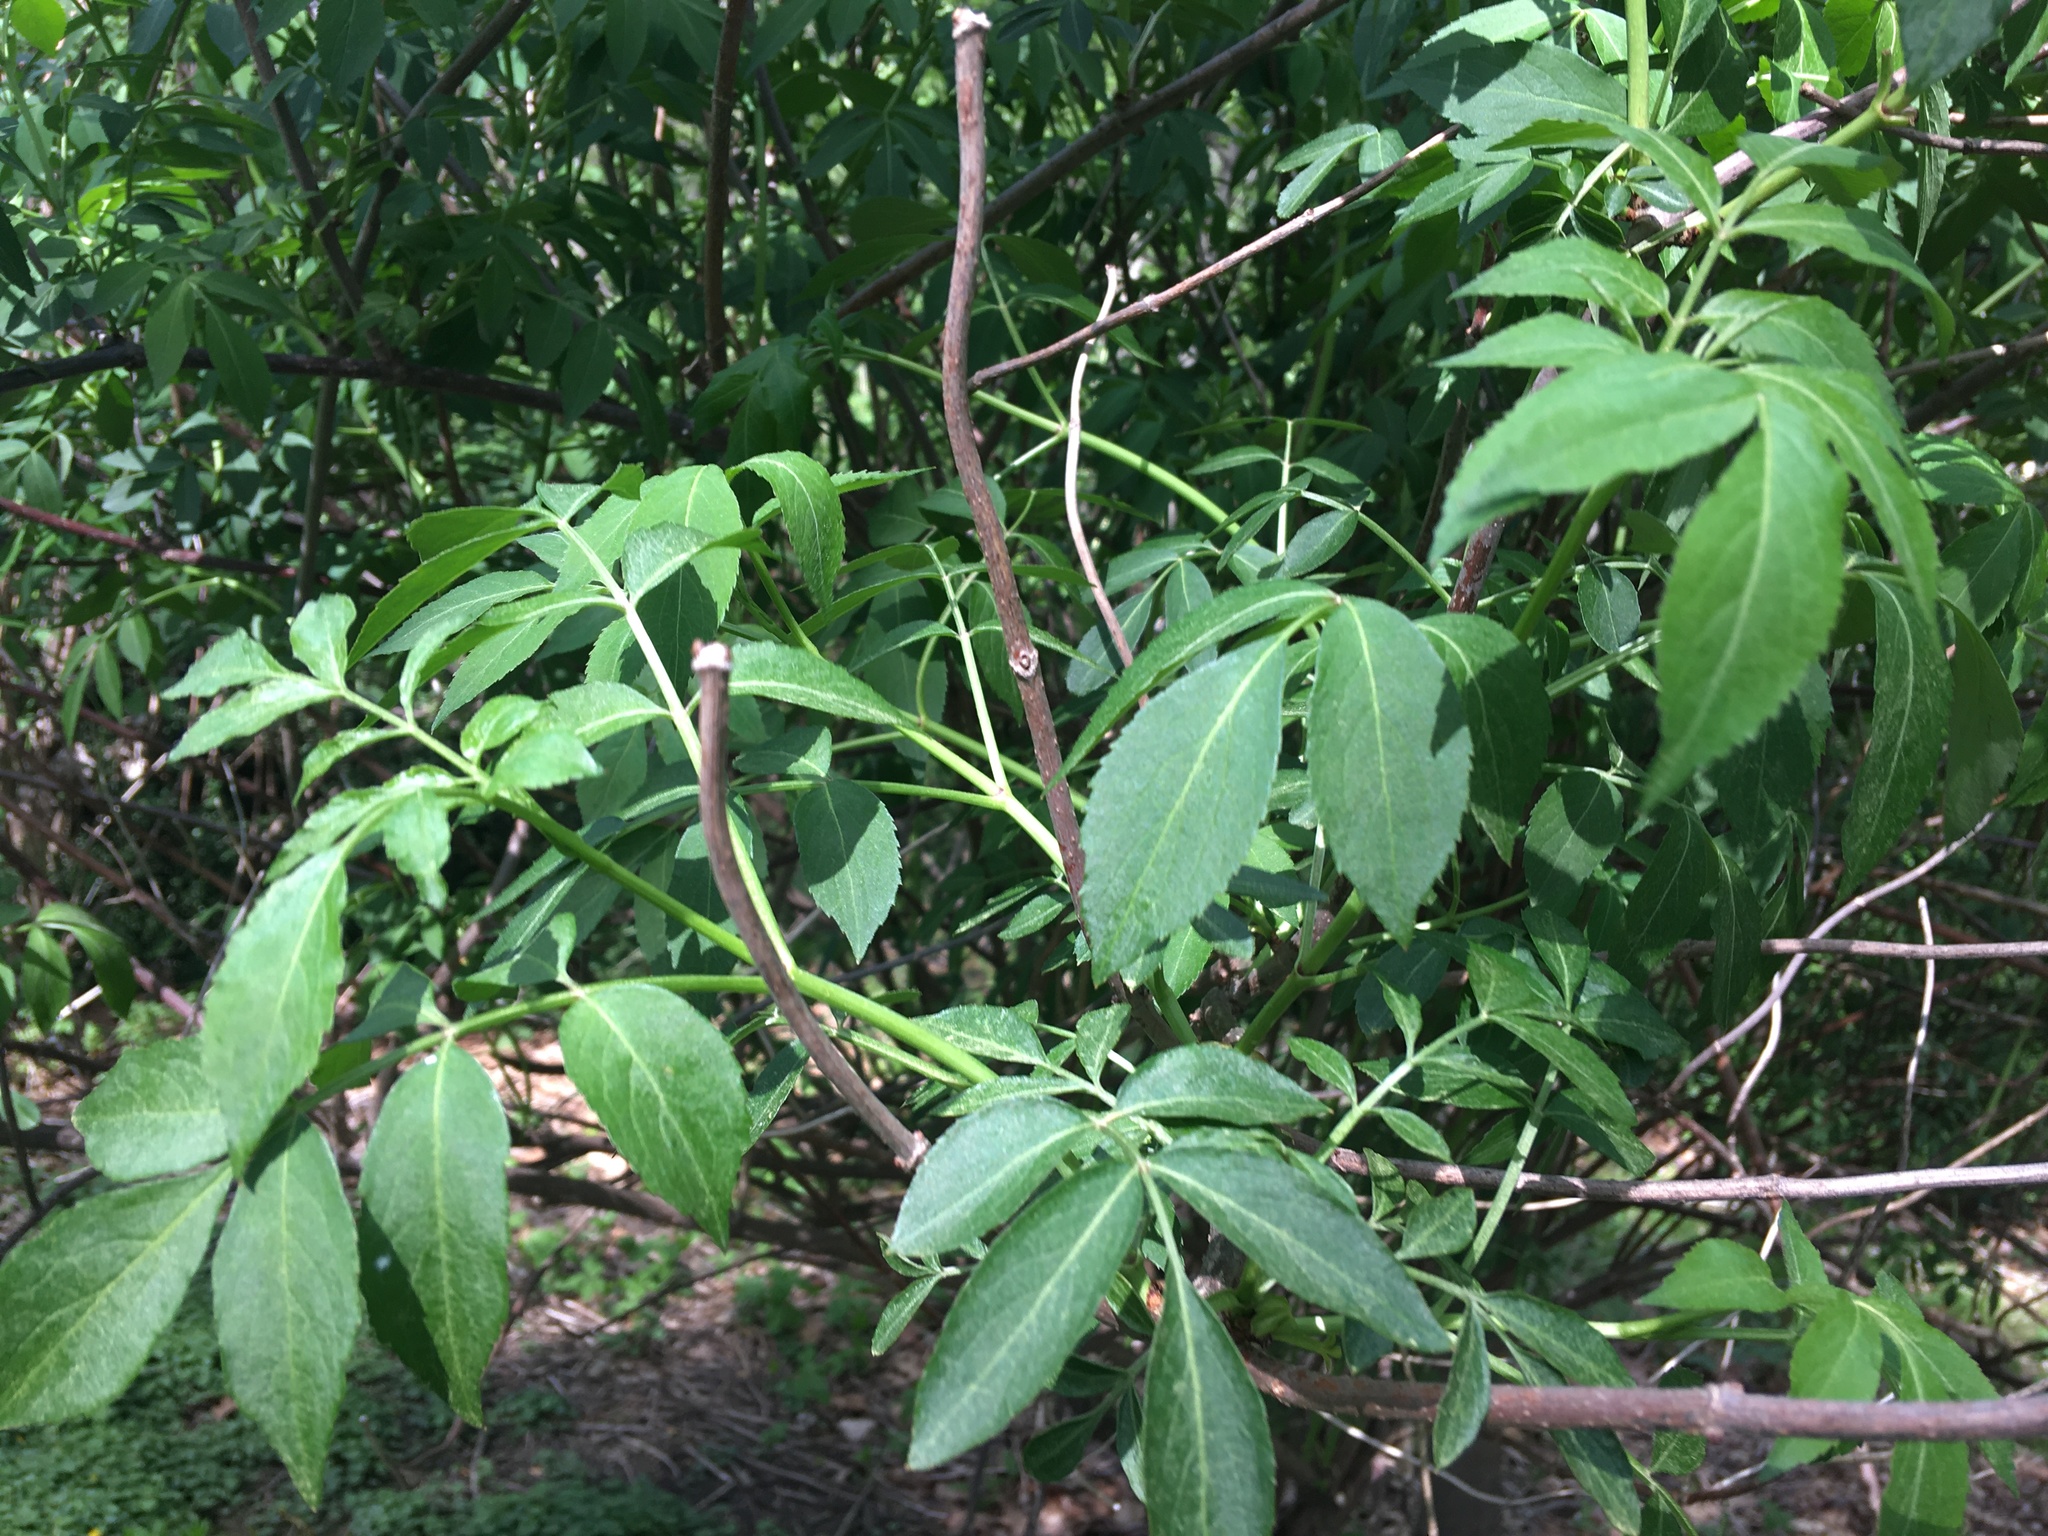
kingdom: Plantae
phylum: Tracheophyta
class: Magnoliopsida
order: Dipsacales
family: Viburnaceae
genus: Sambucus
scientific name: Sambucus canadensis
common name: American elder
